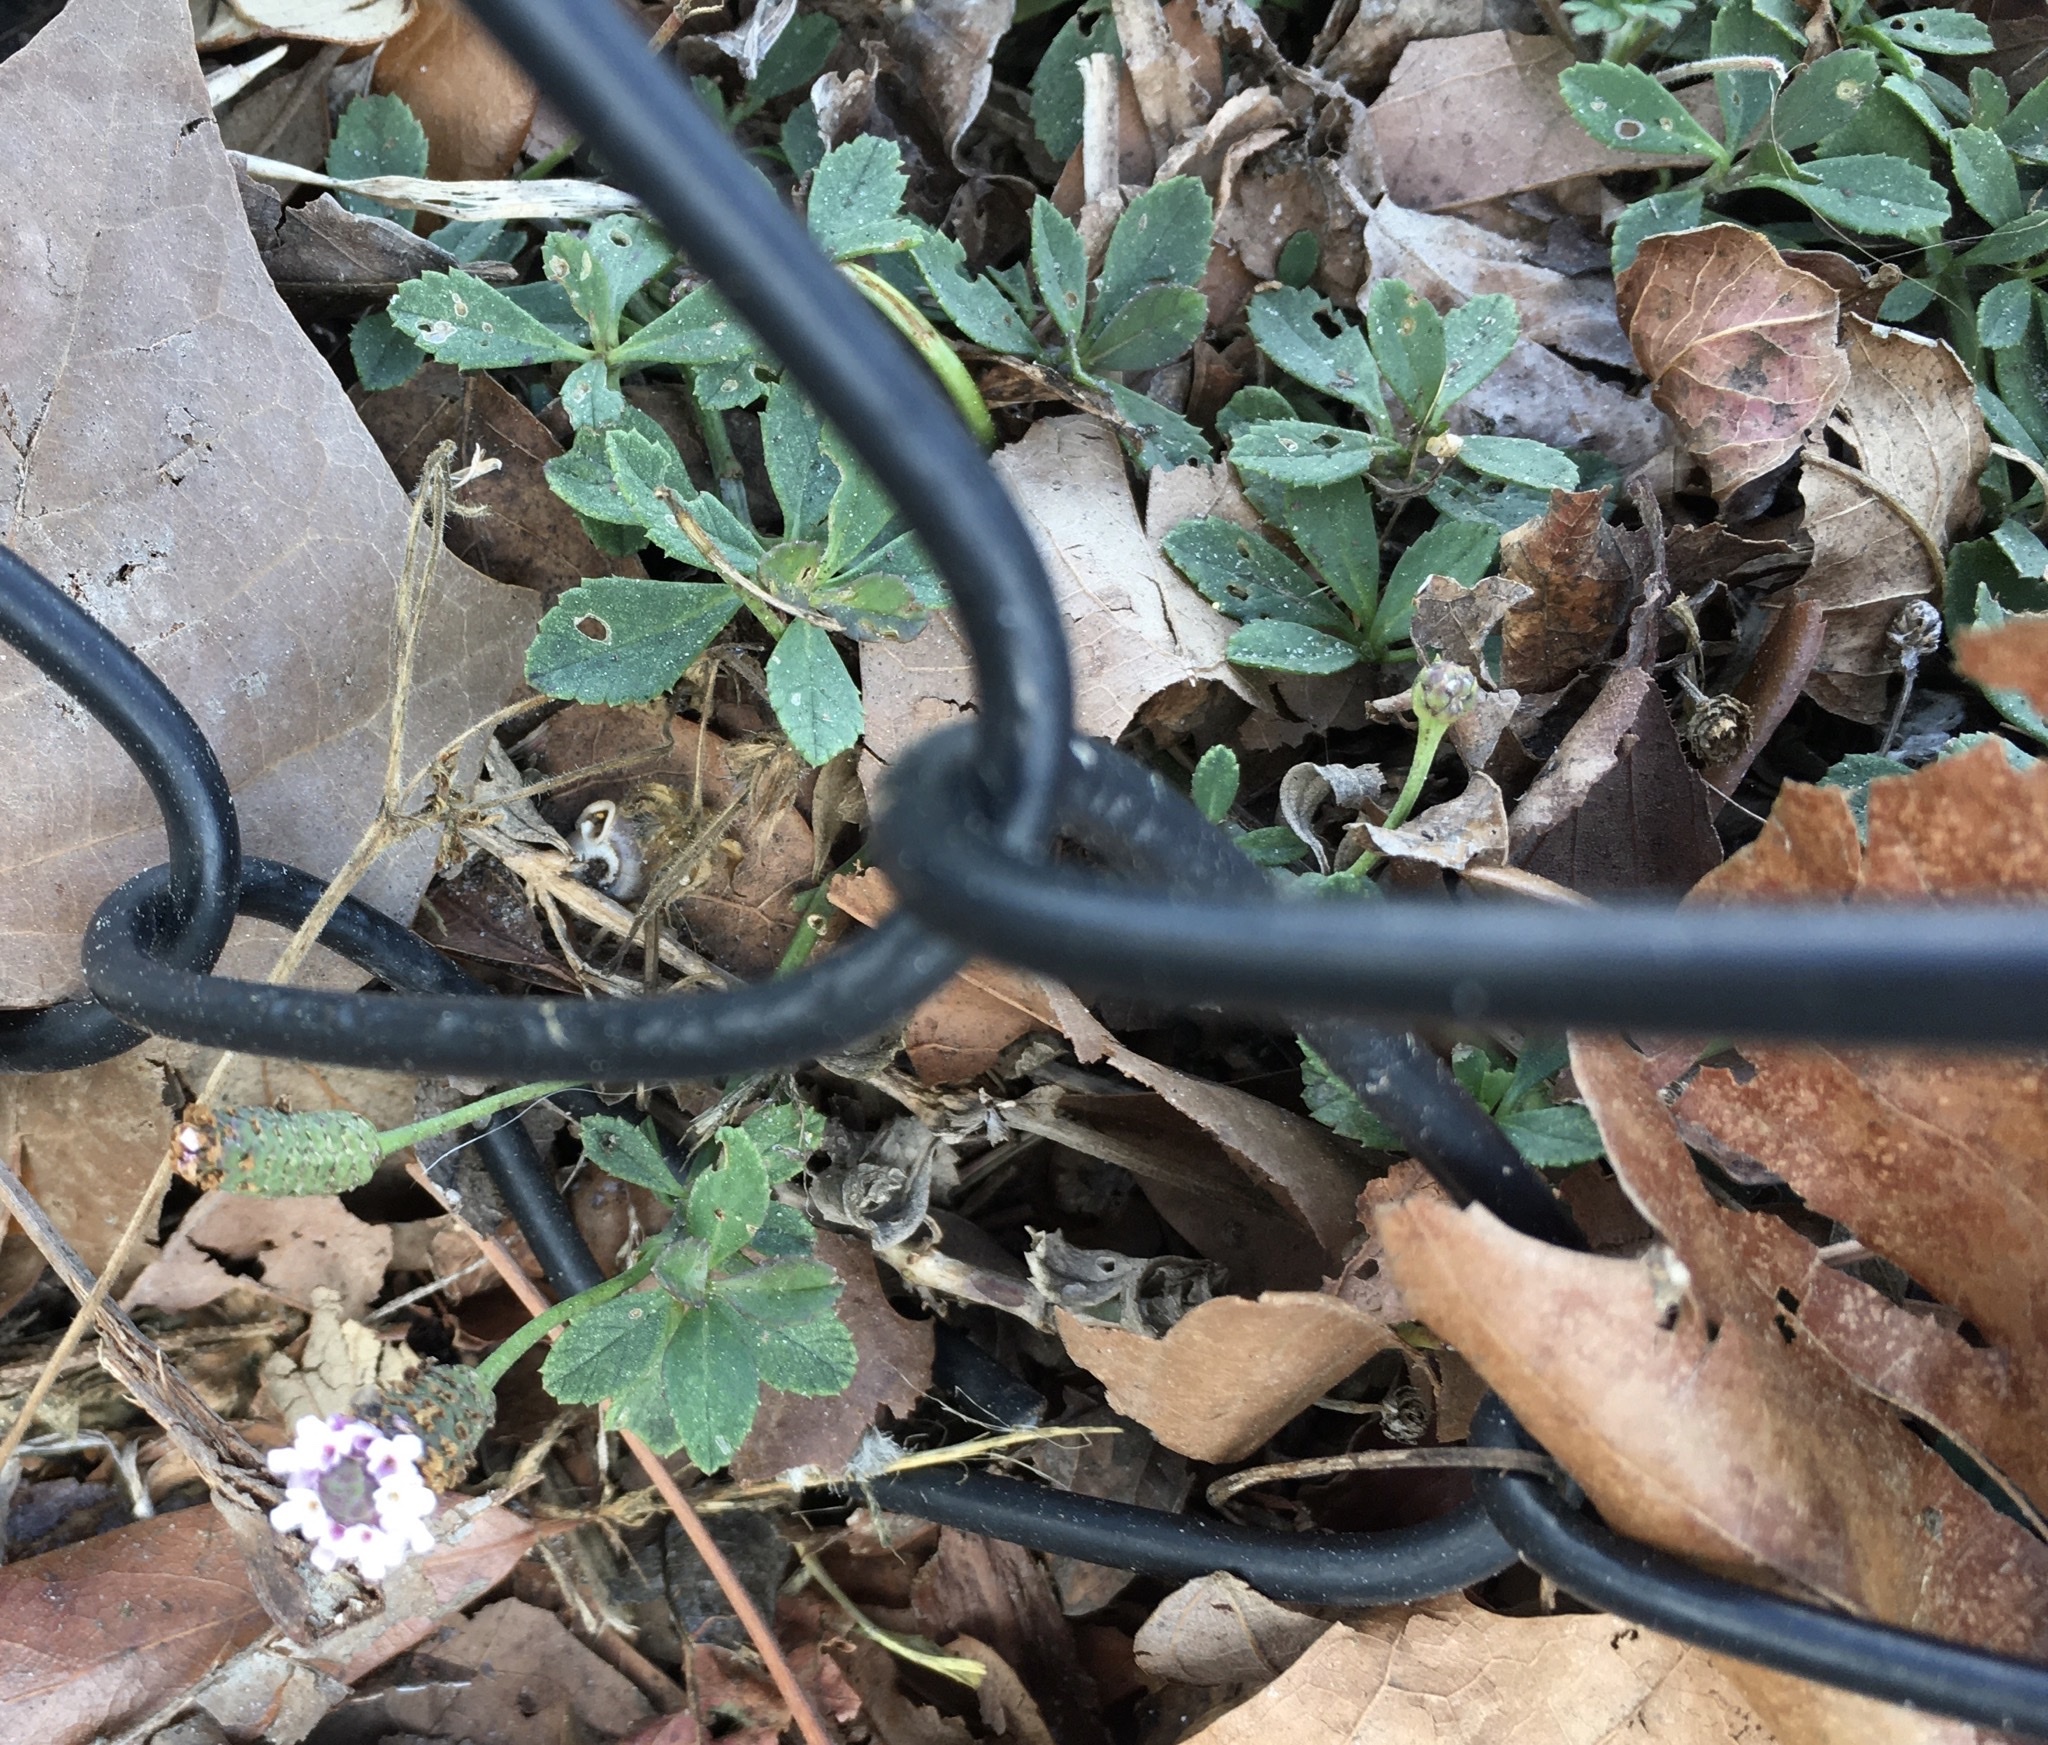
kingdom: Plantae
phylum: Tracheophyta
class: Magnoliopsida
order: Lamiales
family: Verbenaceae
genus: Phyla
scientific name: Phyla nodiflora
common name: Frogfruit
